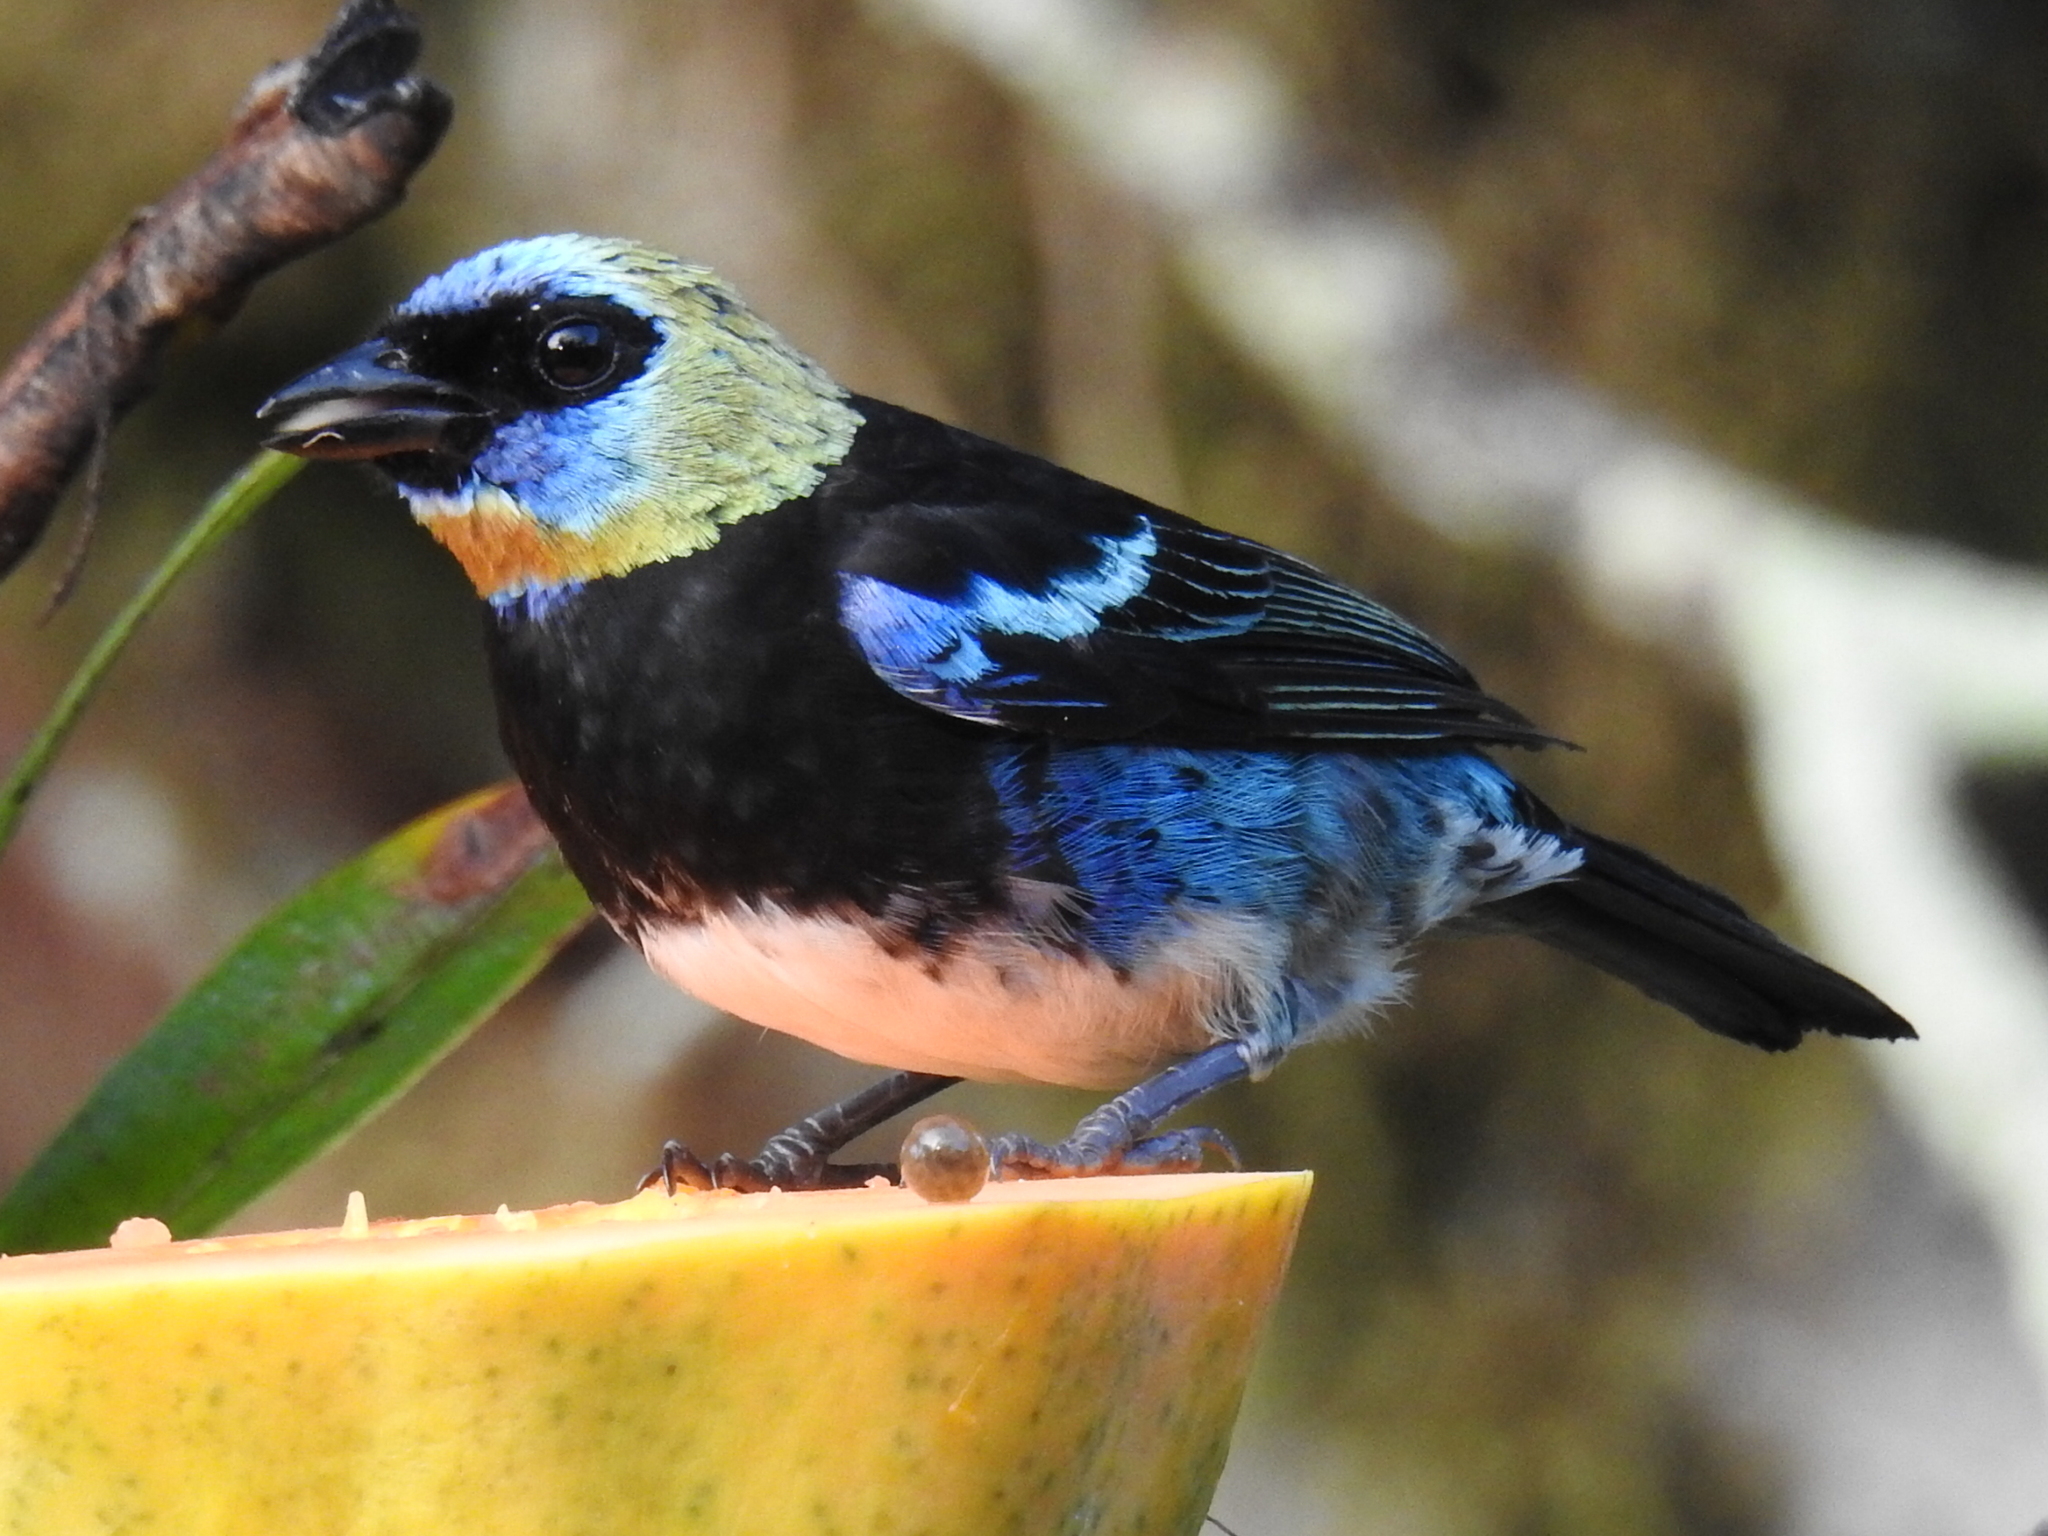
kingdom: Animalia
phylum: Chordata
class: Aves
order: Passeriformes
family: Thraupidae
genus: Stilpnia
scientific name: Stilpnia larvata
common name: Golden-hooded tanager
